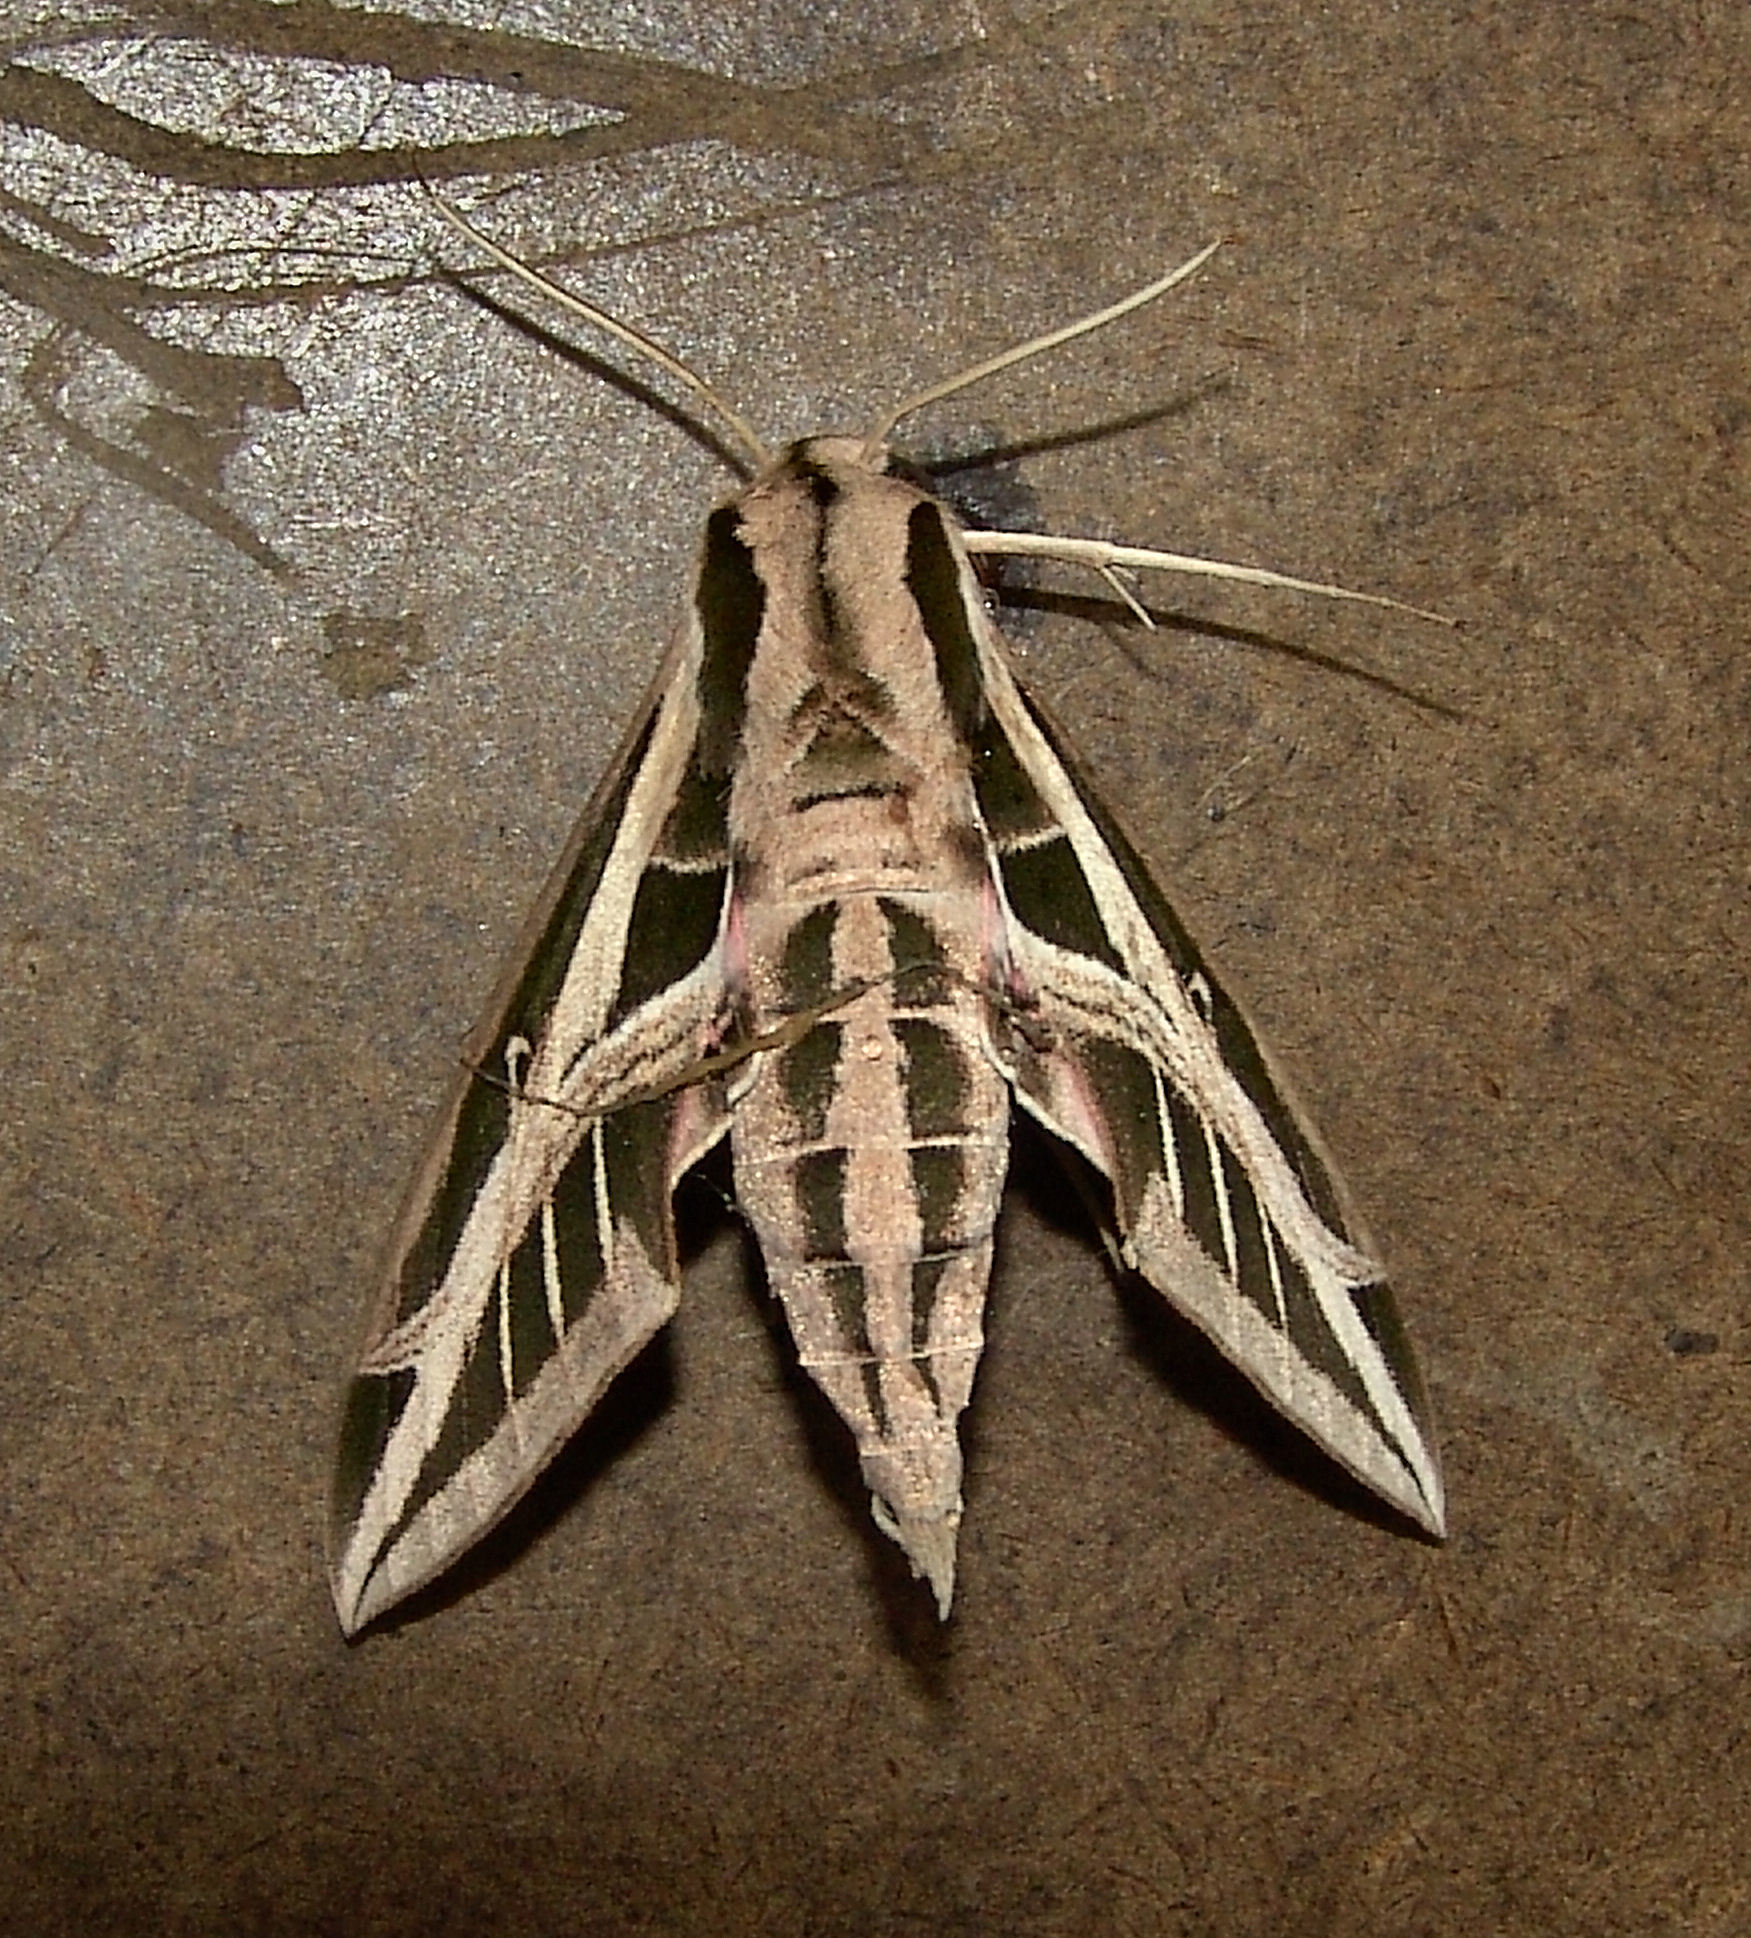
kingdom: Animalia
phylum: Arthropoda
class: Insecta
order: Lepidoptera
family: Sphingidae
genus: Eumorpha
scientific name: Eumorpha fasciatus
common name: Banded sphinx
